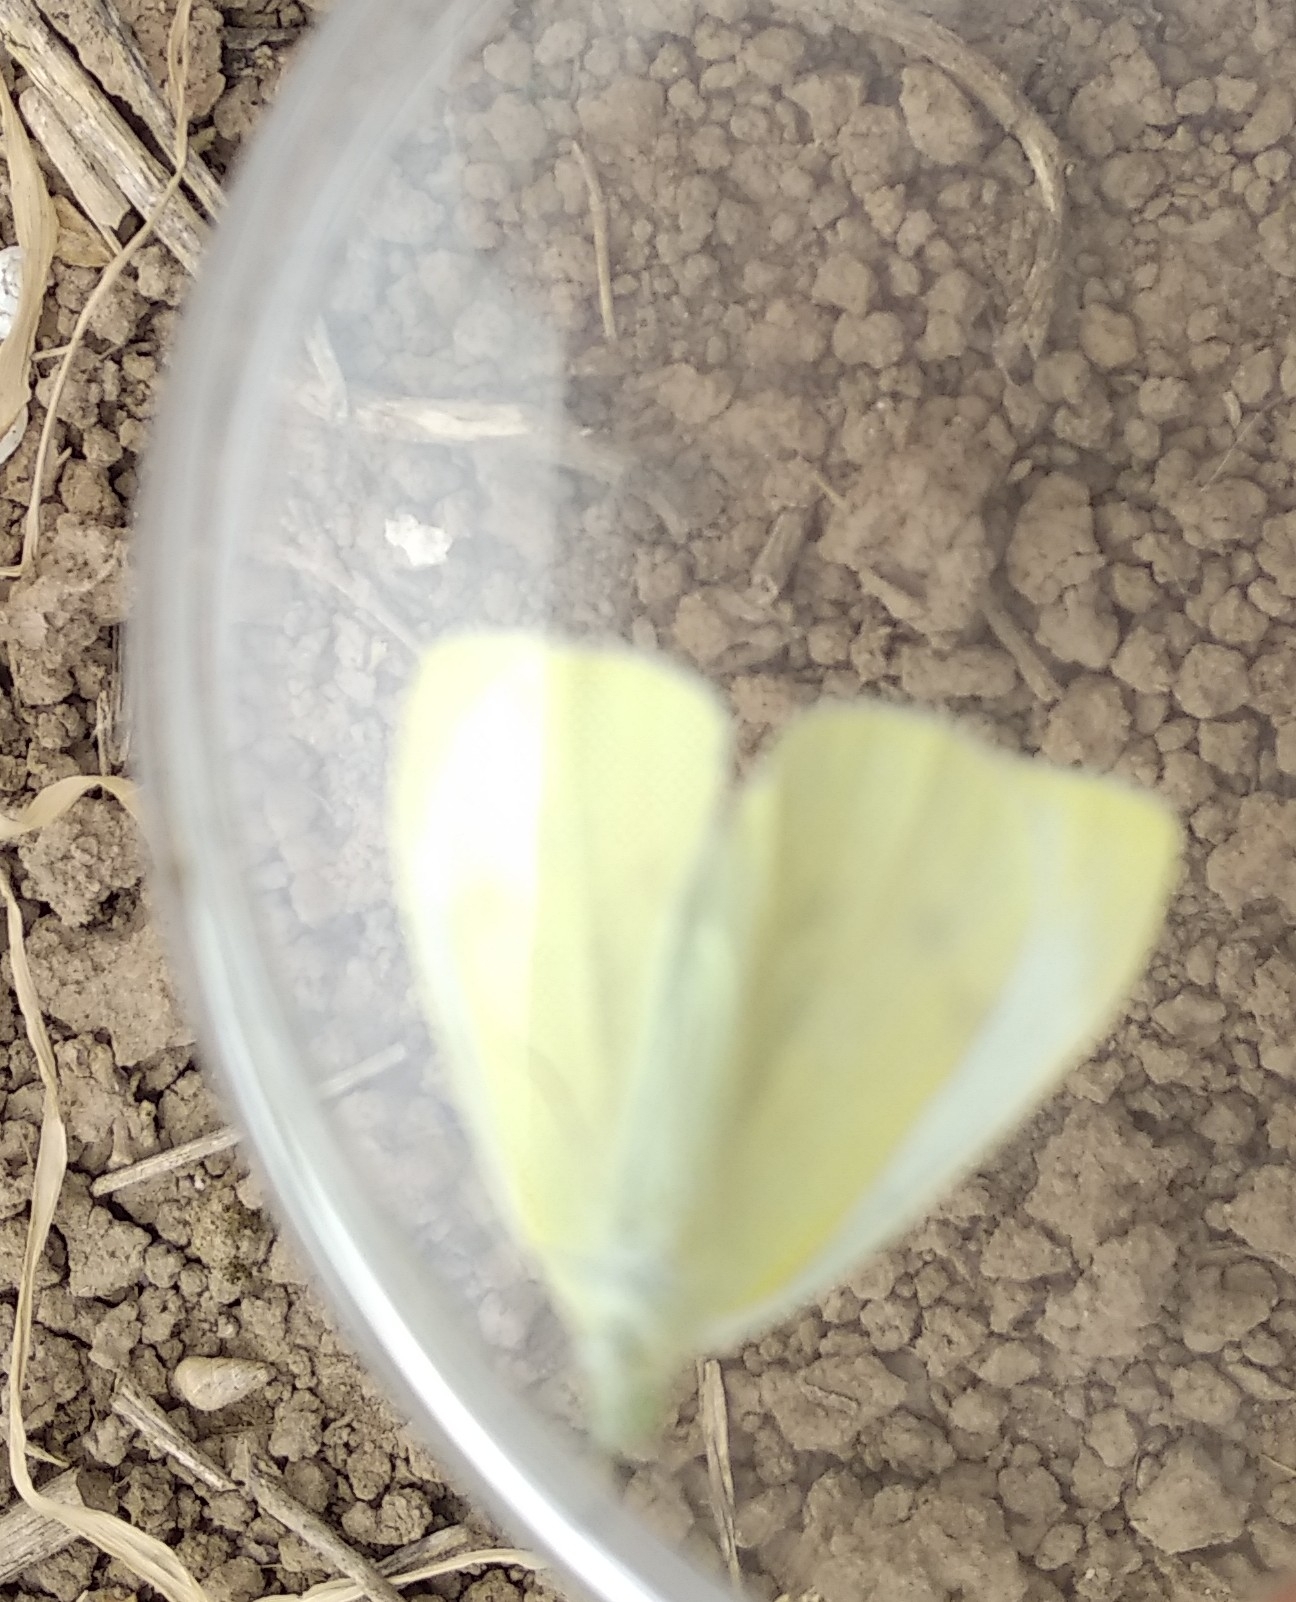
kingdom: Animalia
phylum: Arthropoda
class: Insecta
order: Lepidoptera
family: Pieridae
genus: Pieris
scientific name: Pieris rapae
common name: Small white
